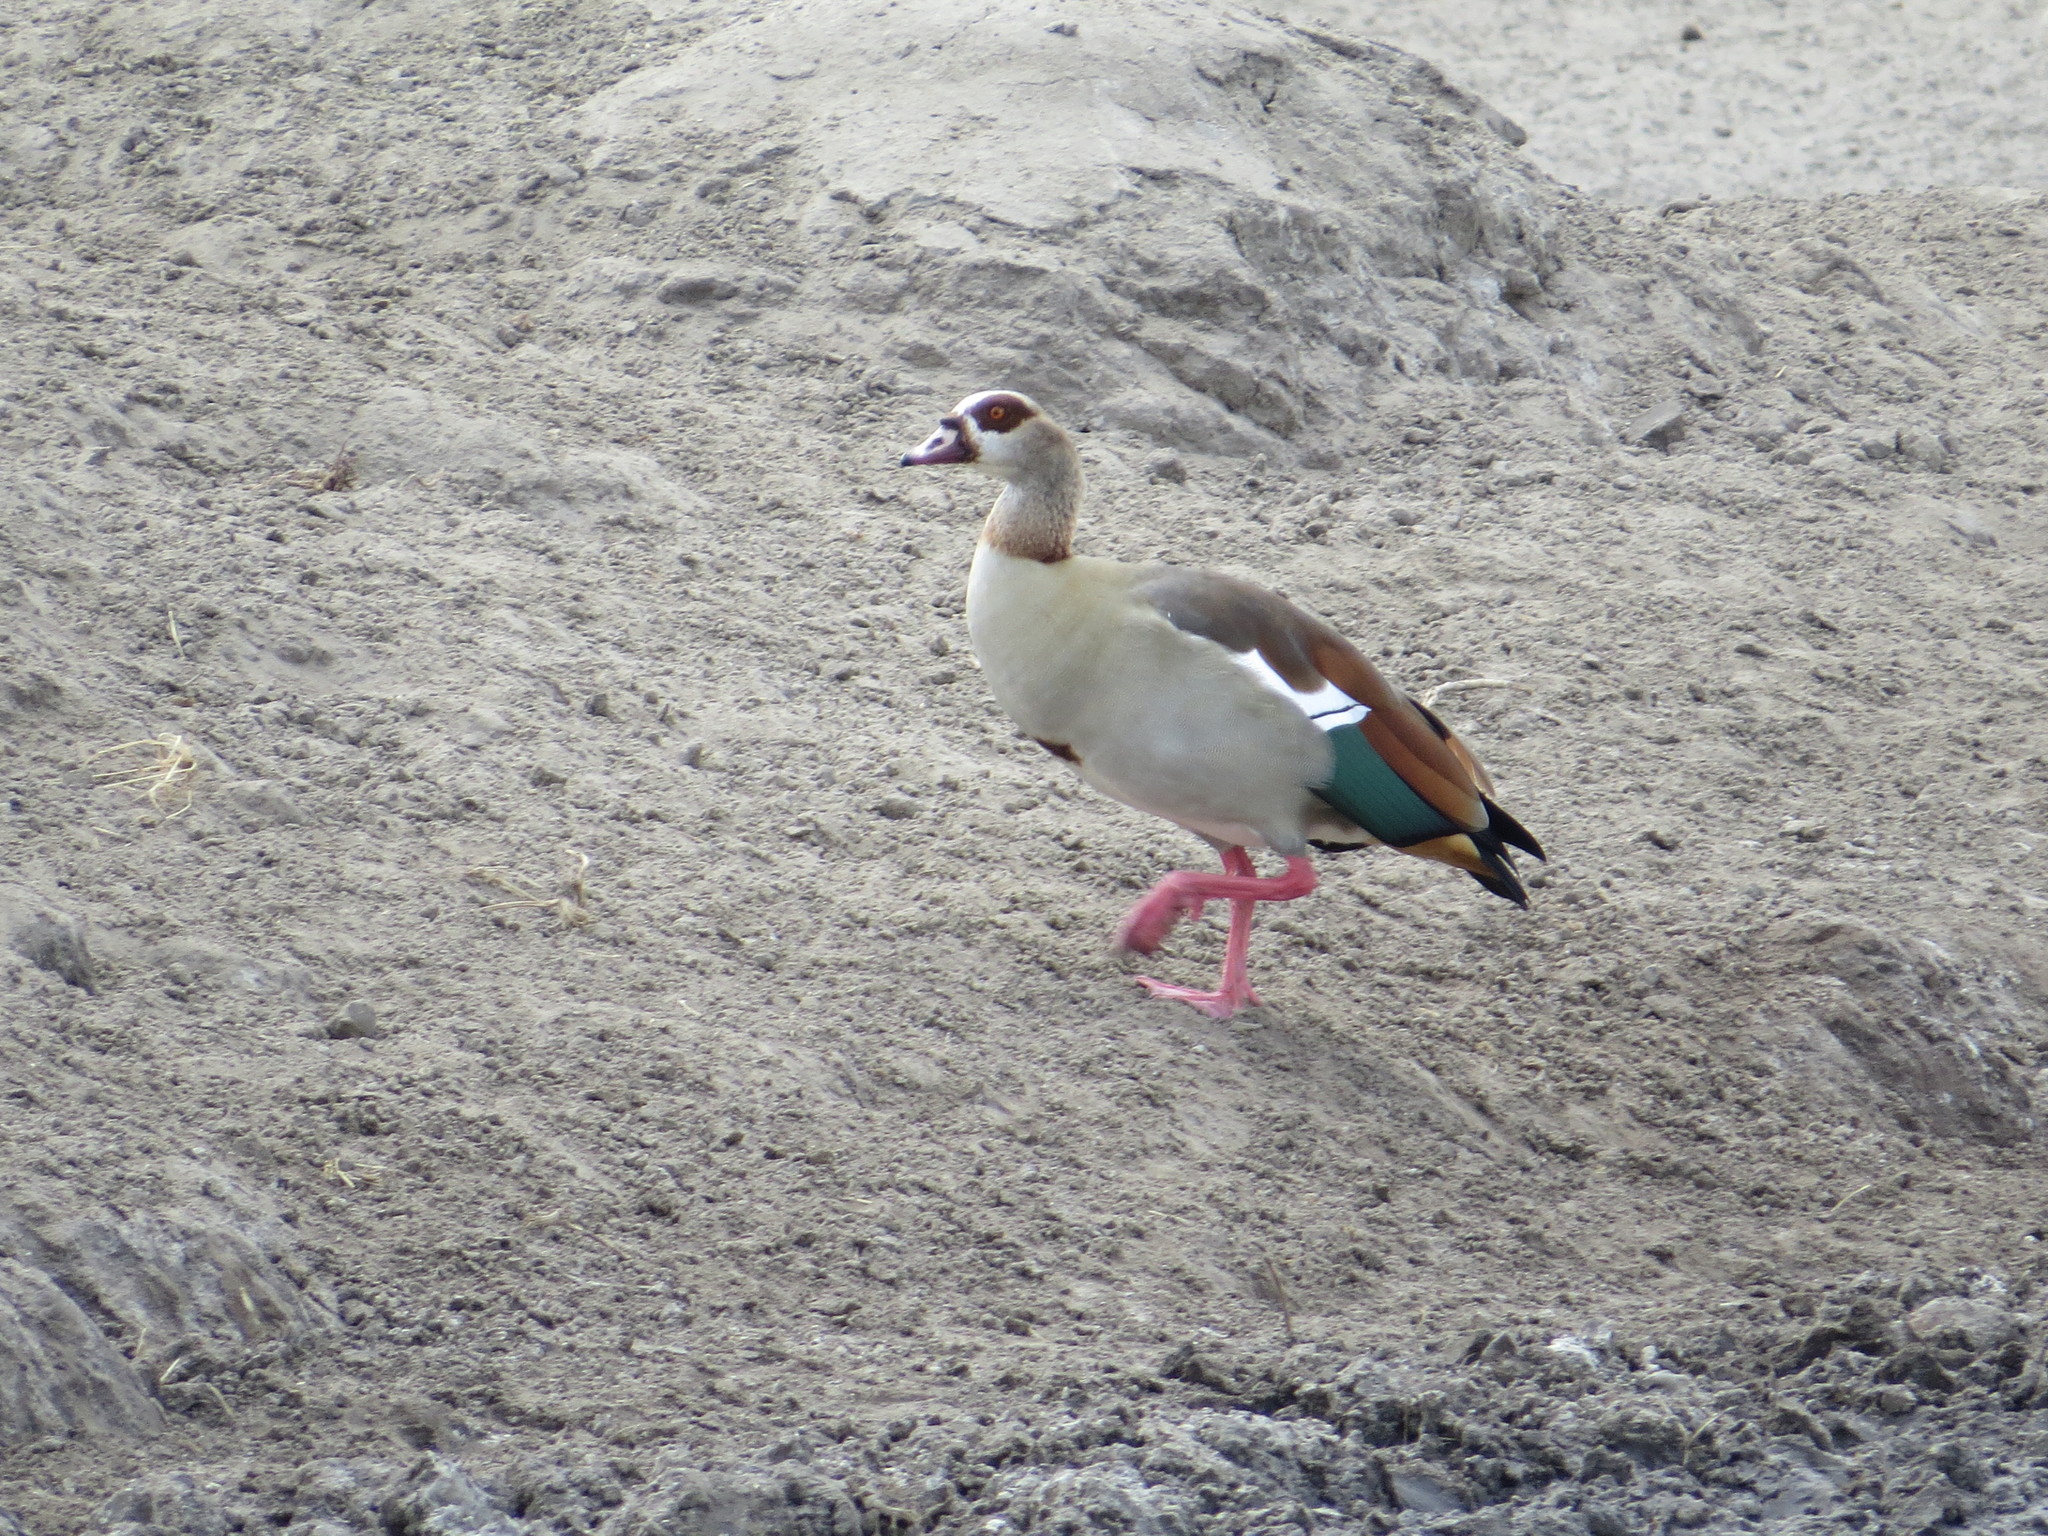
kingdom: Animalia
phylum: Chordata
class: Aves
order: Anseriformes
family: Anatidae
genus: Alopochen
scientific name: Alopochen aegyptiaca
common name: Egyptian goose
